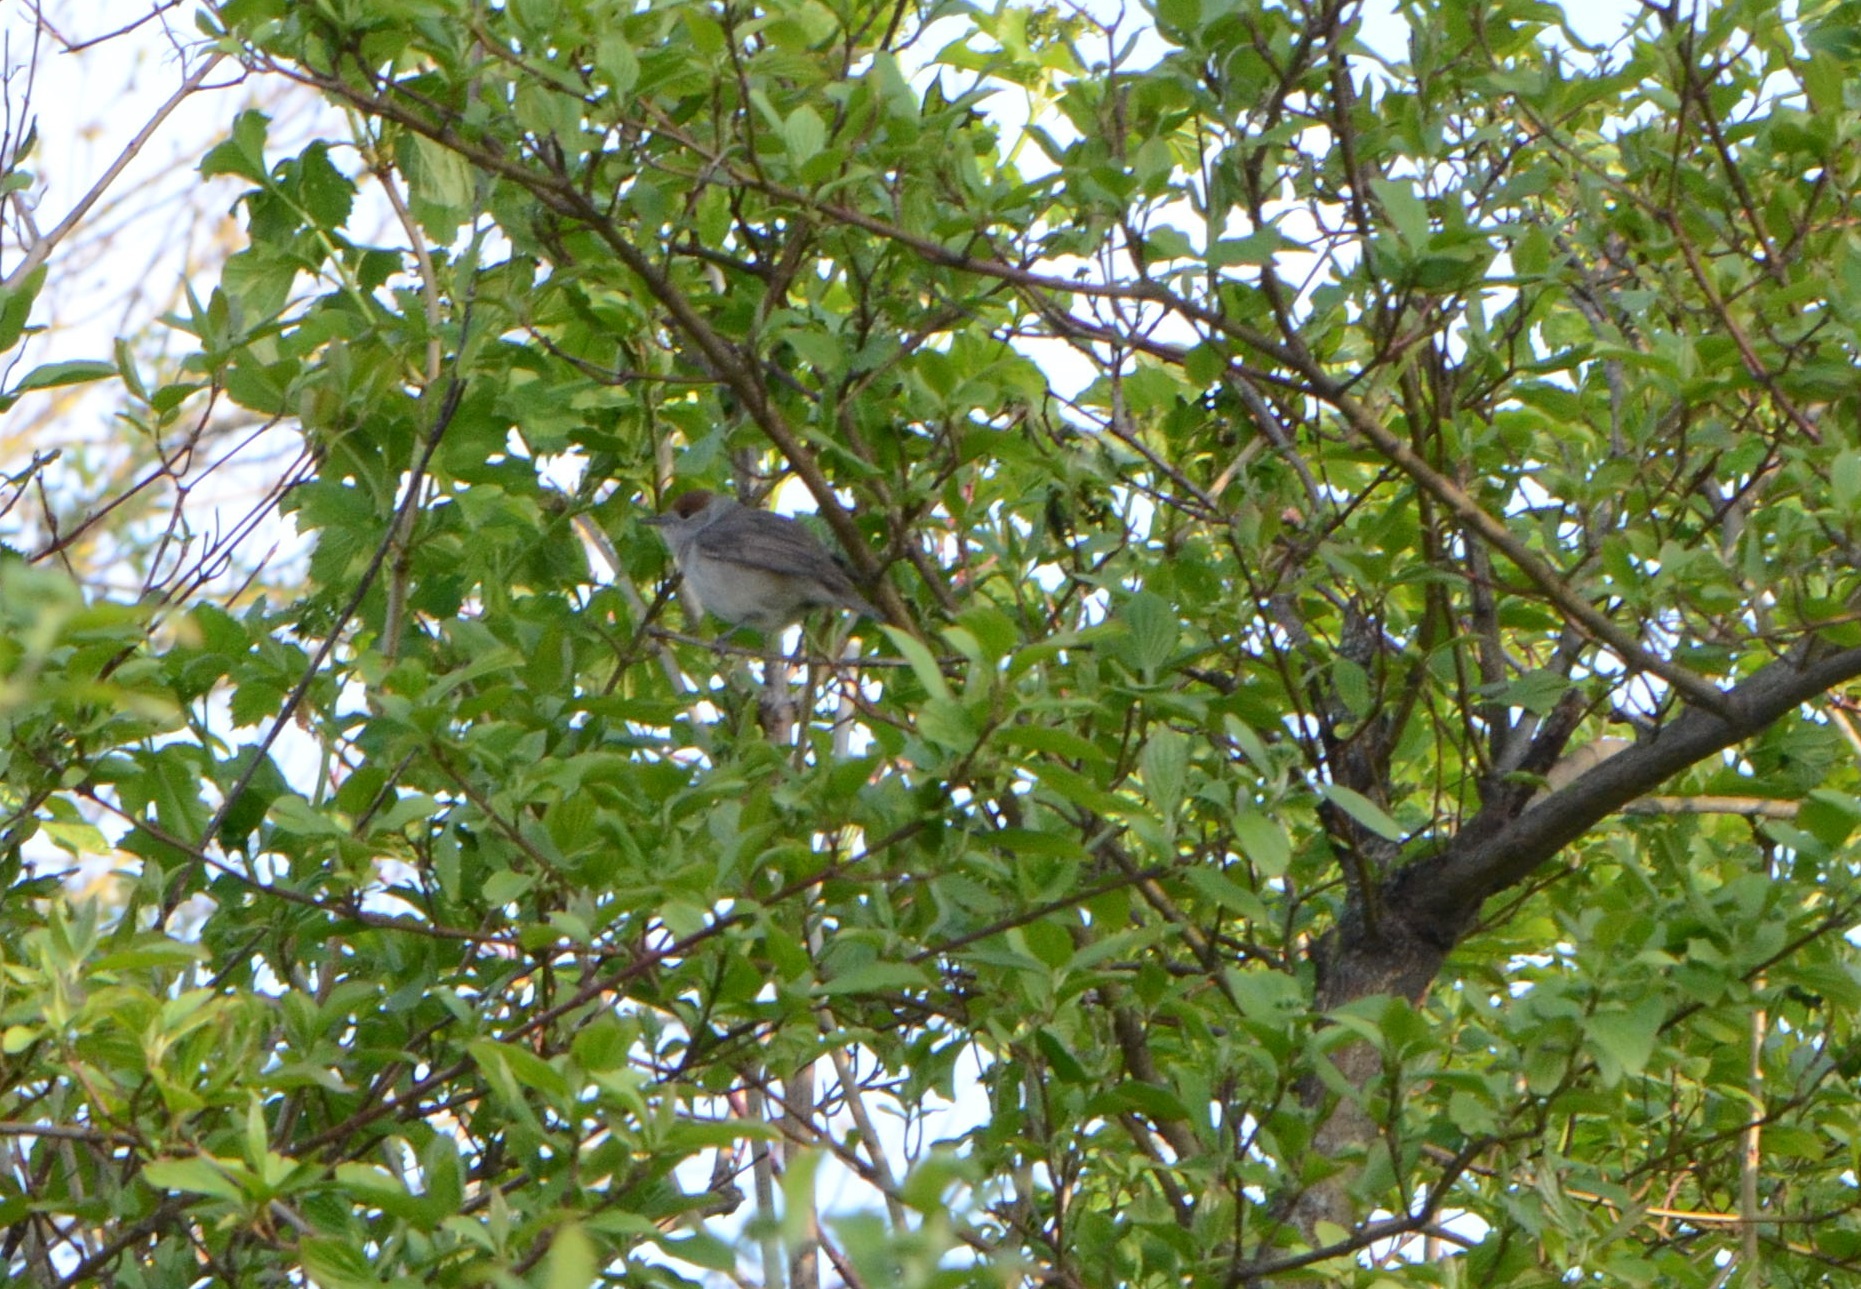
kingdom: Animalia
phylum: Chordata
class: Aves
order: Passeriformes
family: Sylviidae
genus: Sylvia
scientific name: Sylvia atricapilla
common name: Eurasian blackcap
